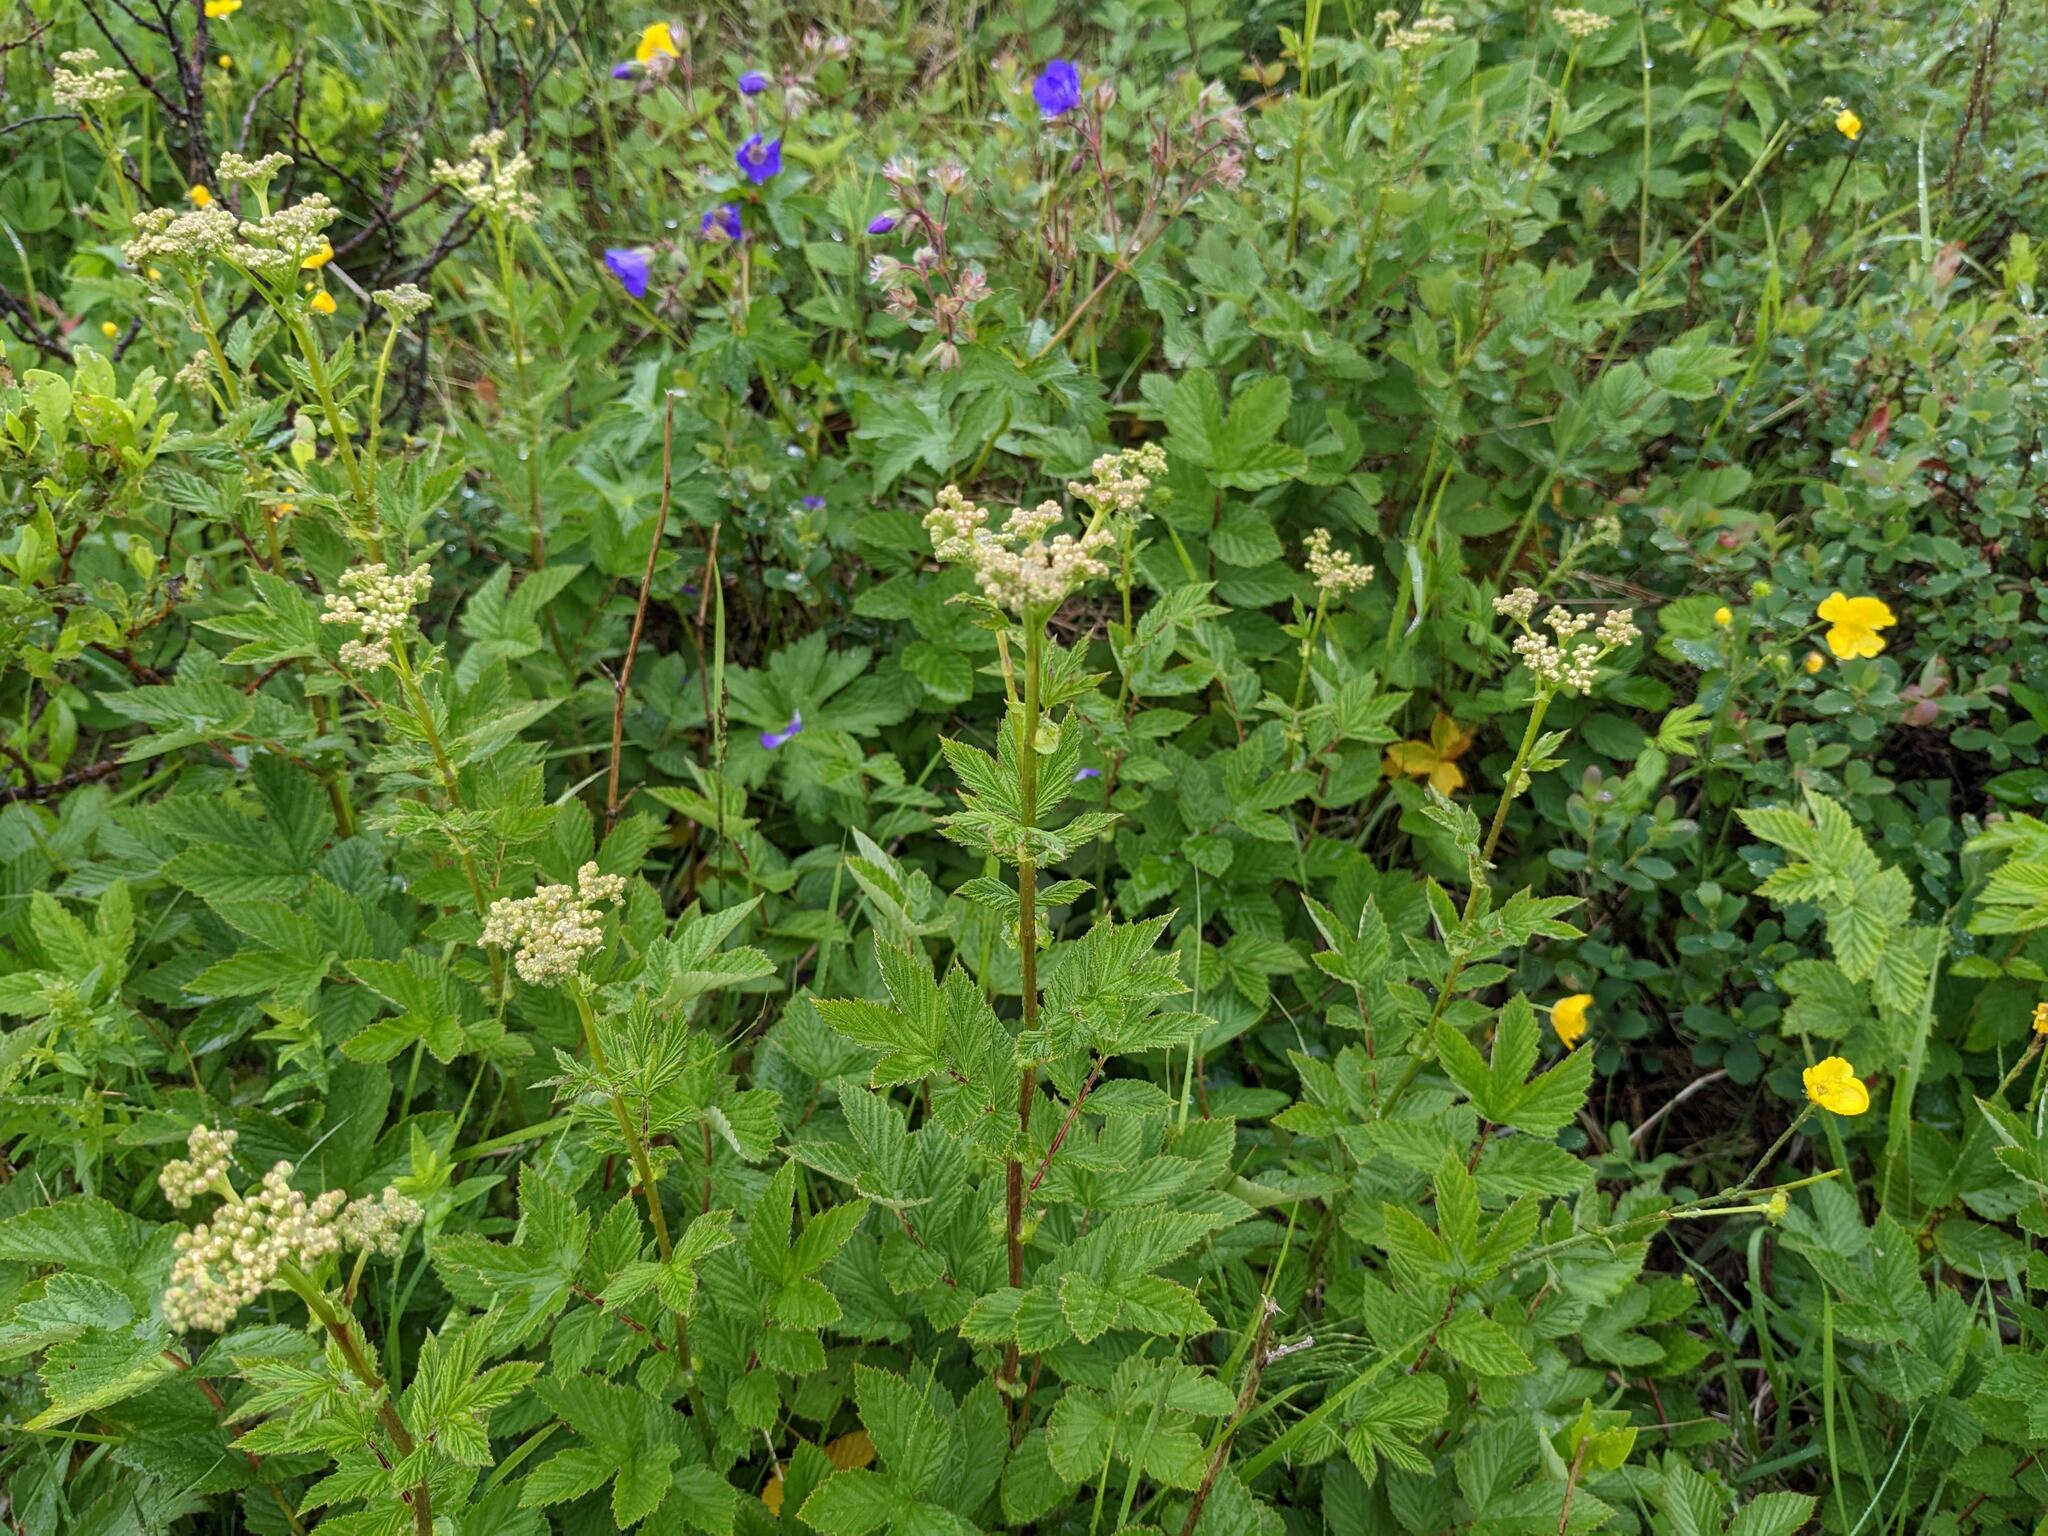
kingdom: Plantae
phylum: Tracheophyta
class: Magnoliopsida
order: Rosales
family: Rosaceae
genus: Filipendula
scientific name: Filipendula ulmaria
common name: Meadowsweet
